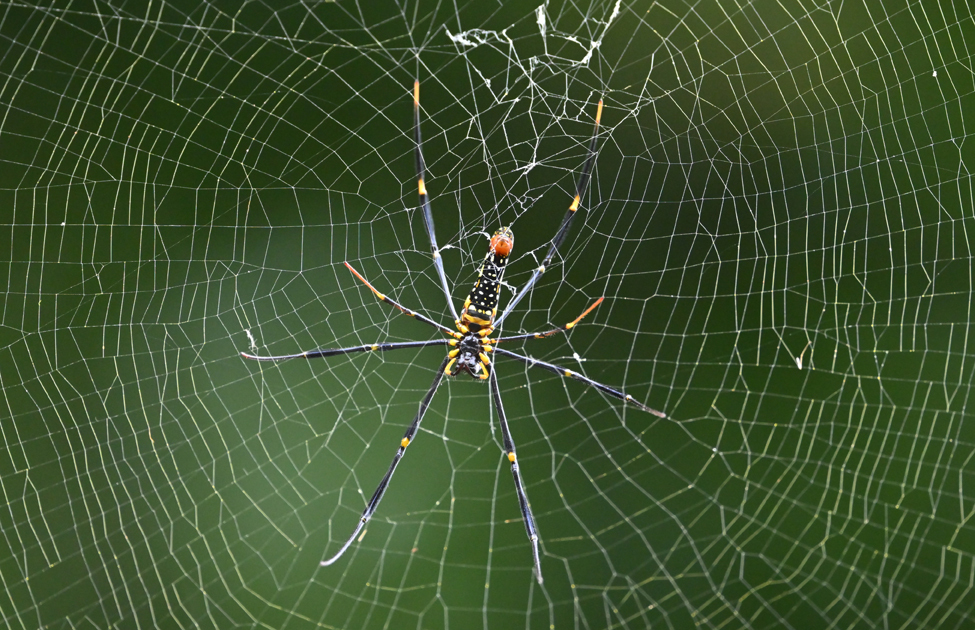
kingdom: Animalia
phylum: Arthropoda
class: Arachnida
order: Araneae
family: Araneidae
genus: Nephila
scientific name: Nephila pilipes
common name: Giant golden orb weaver
